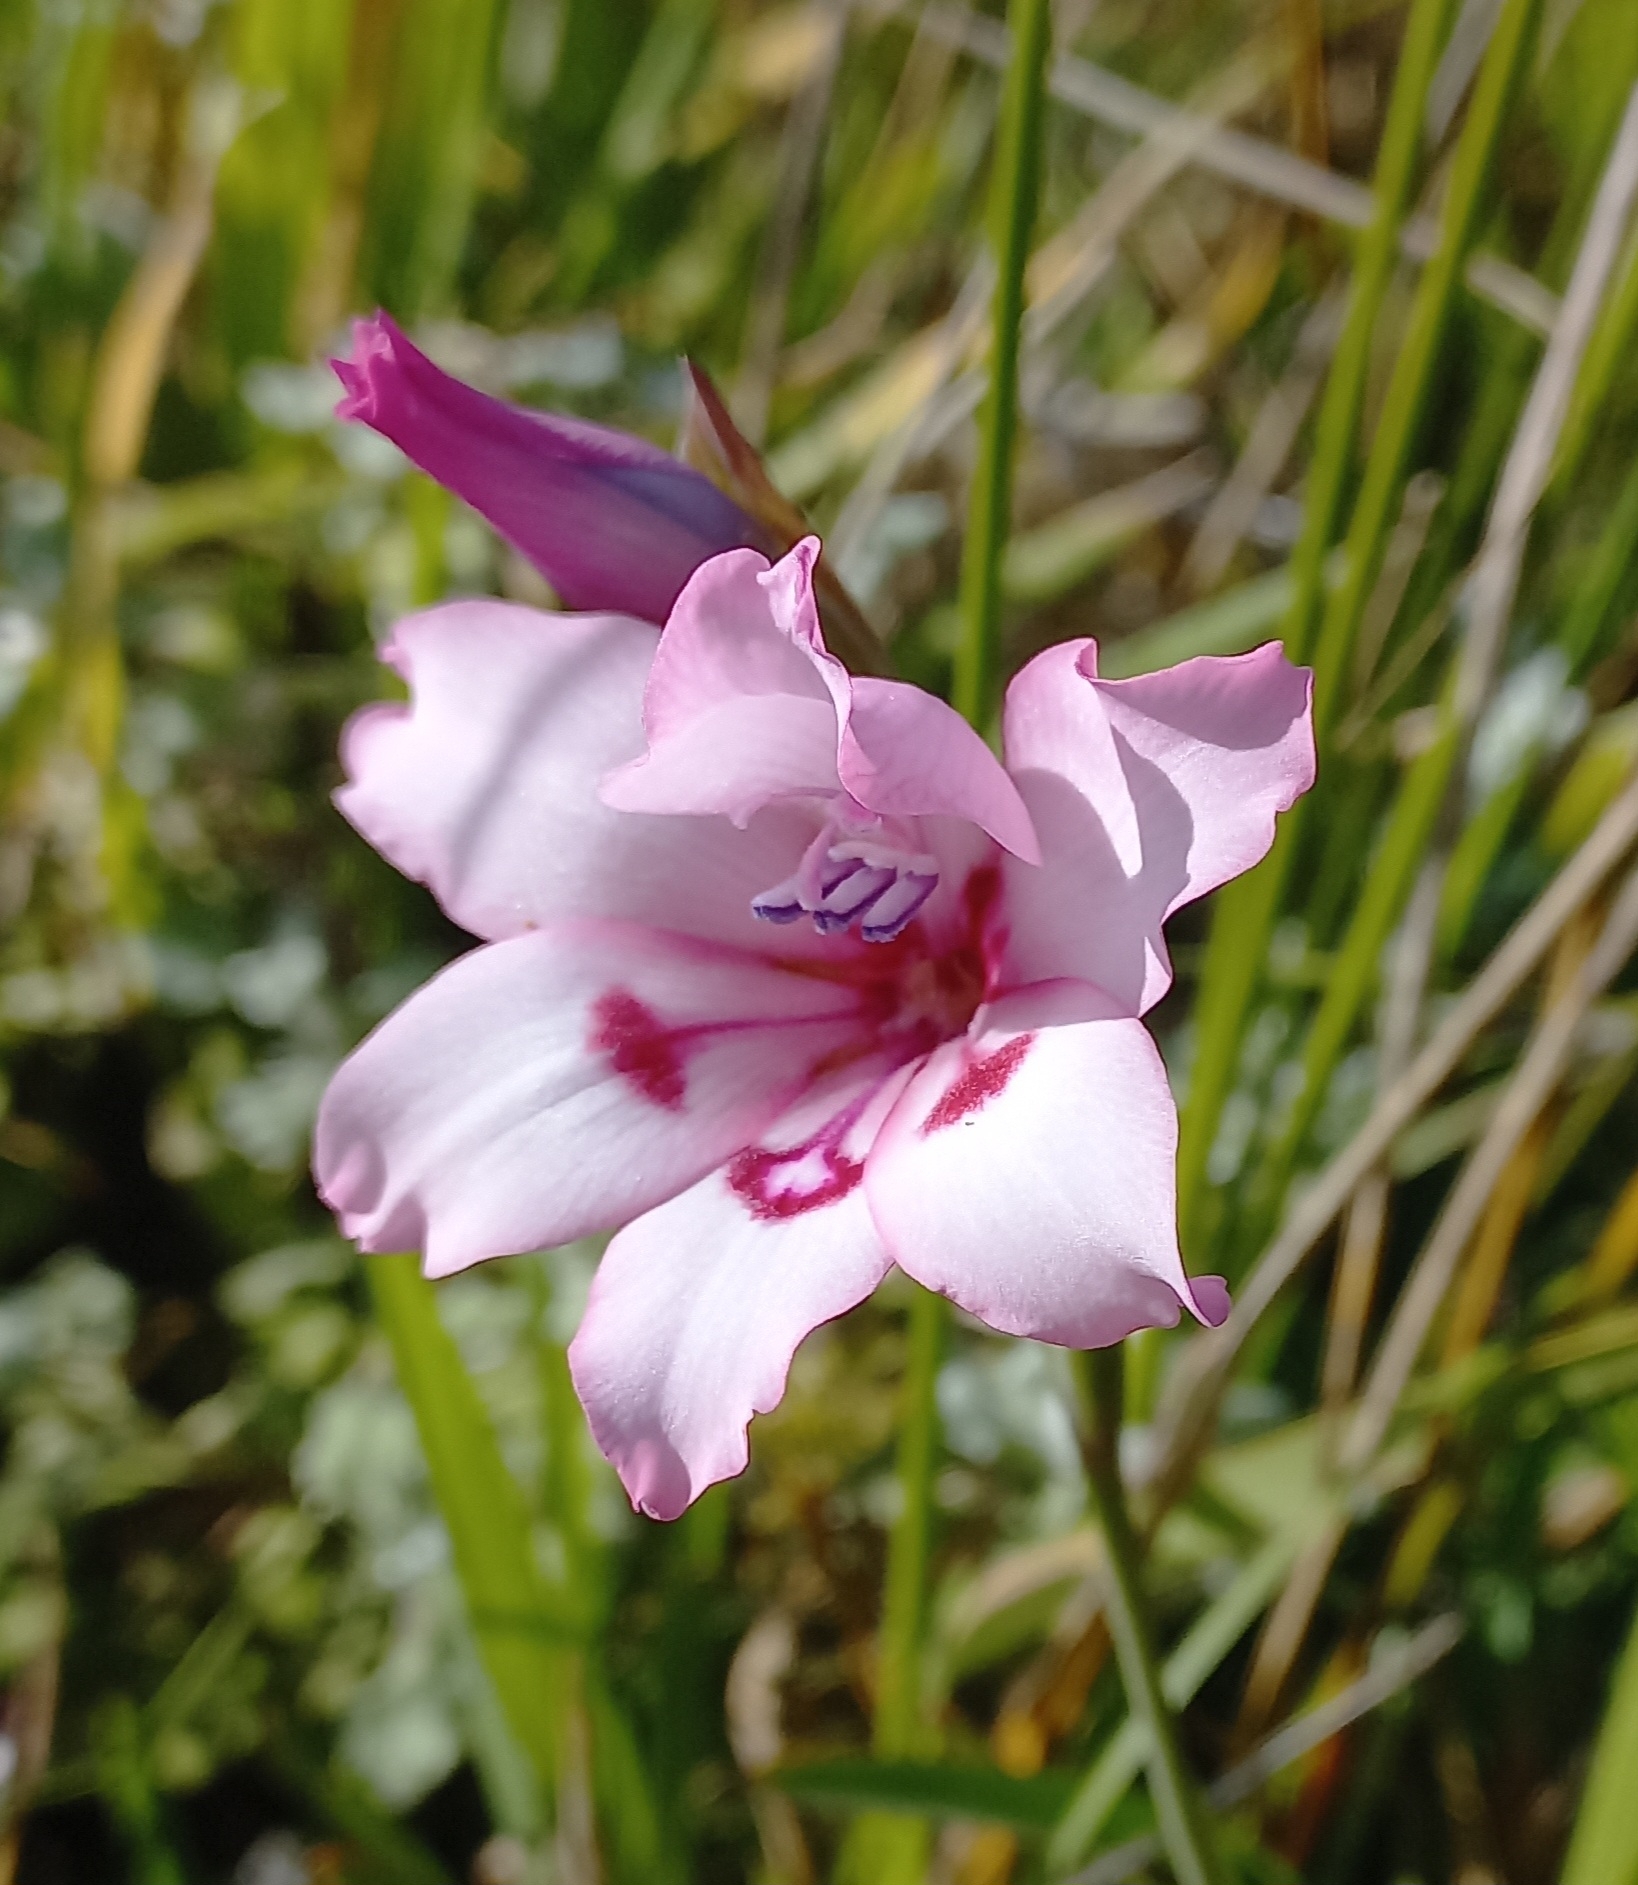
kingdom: Plantae
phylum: Tracheophyta
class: Liliopsida
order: Asparagales
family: Iridaceae
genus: Gladiolus
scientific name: Gladiolus carneus
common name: Painted-lady
